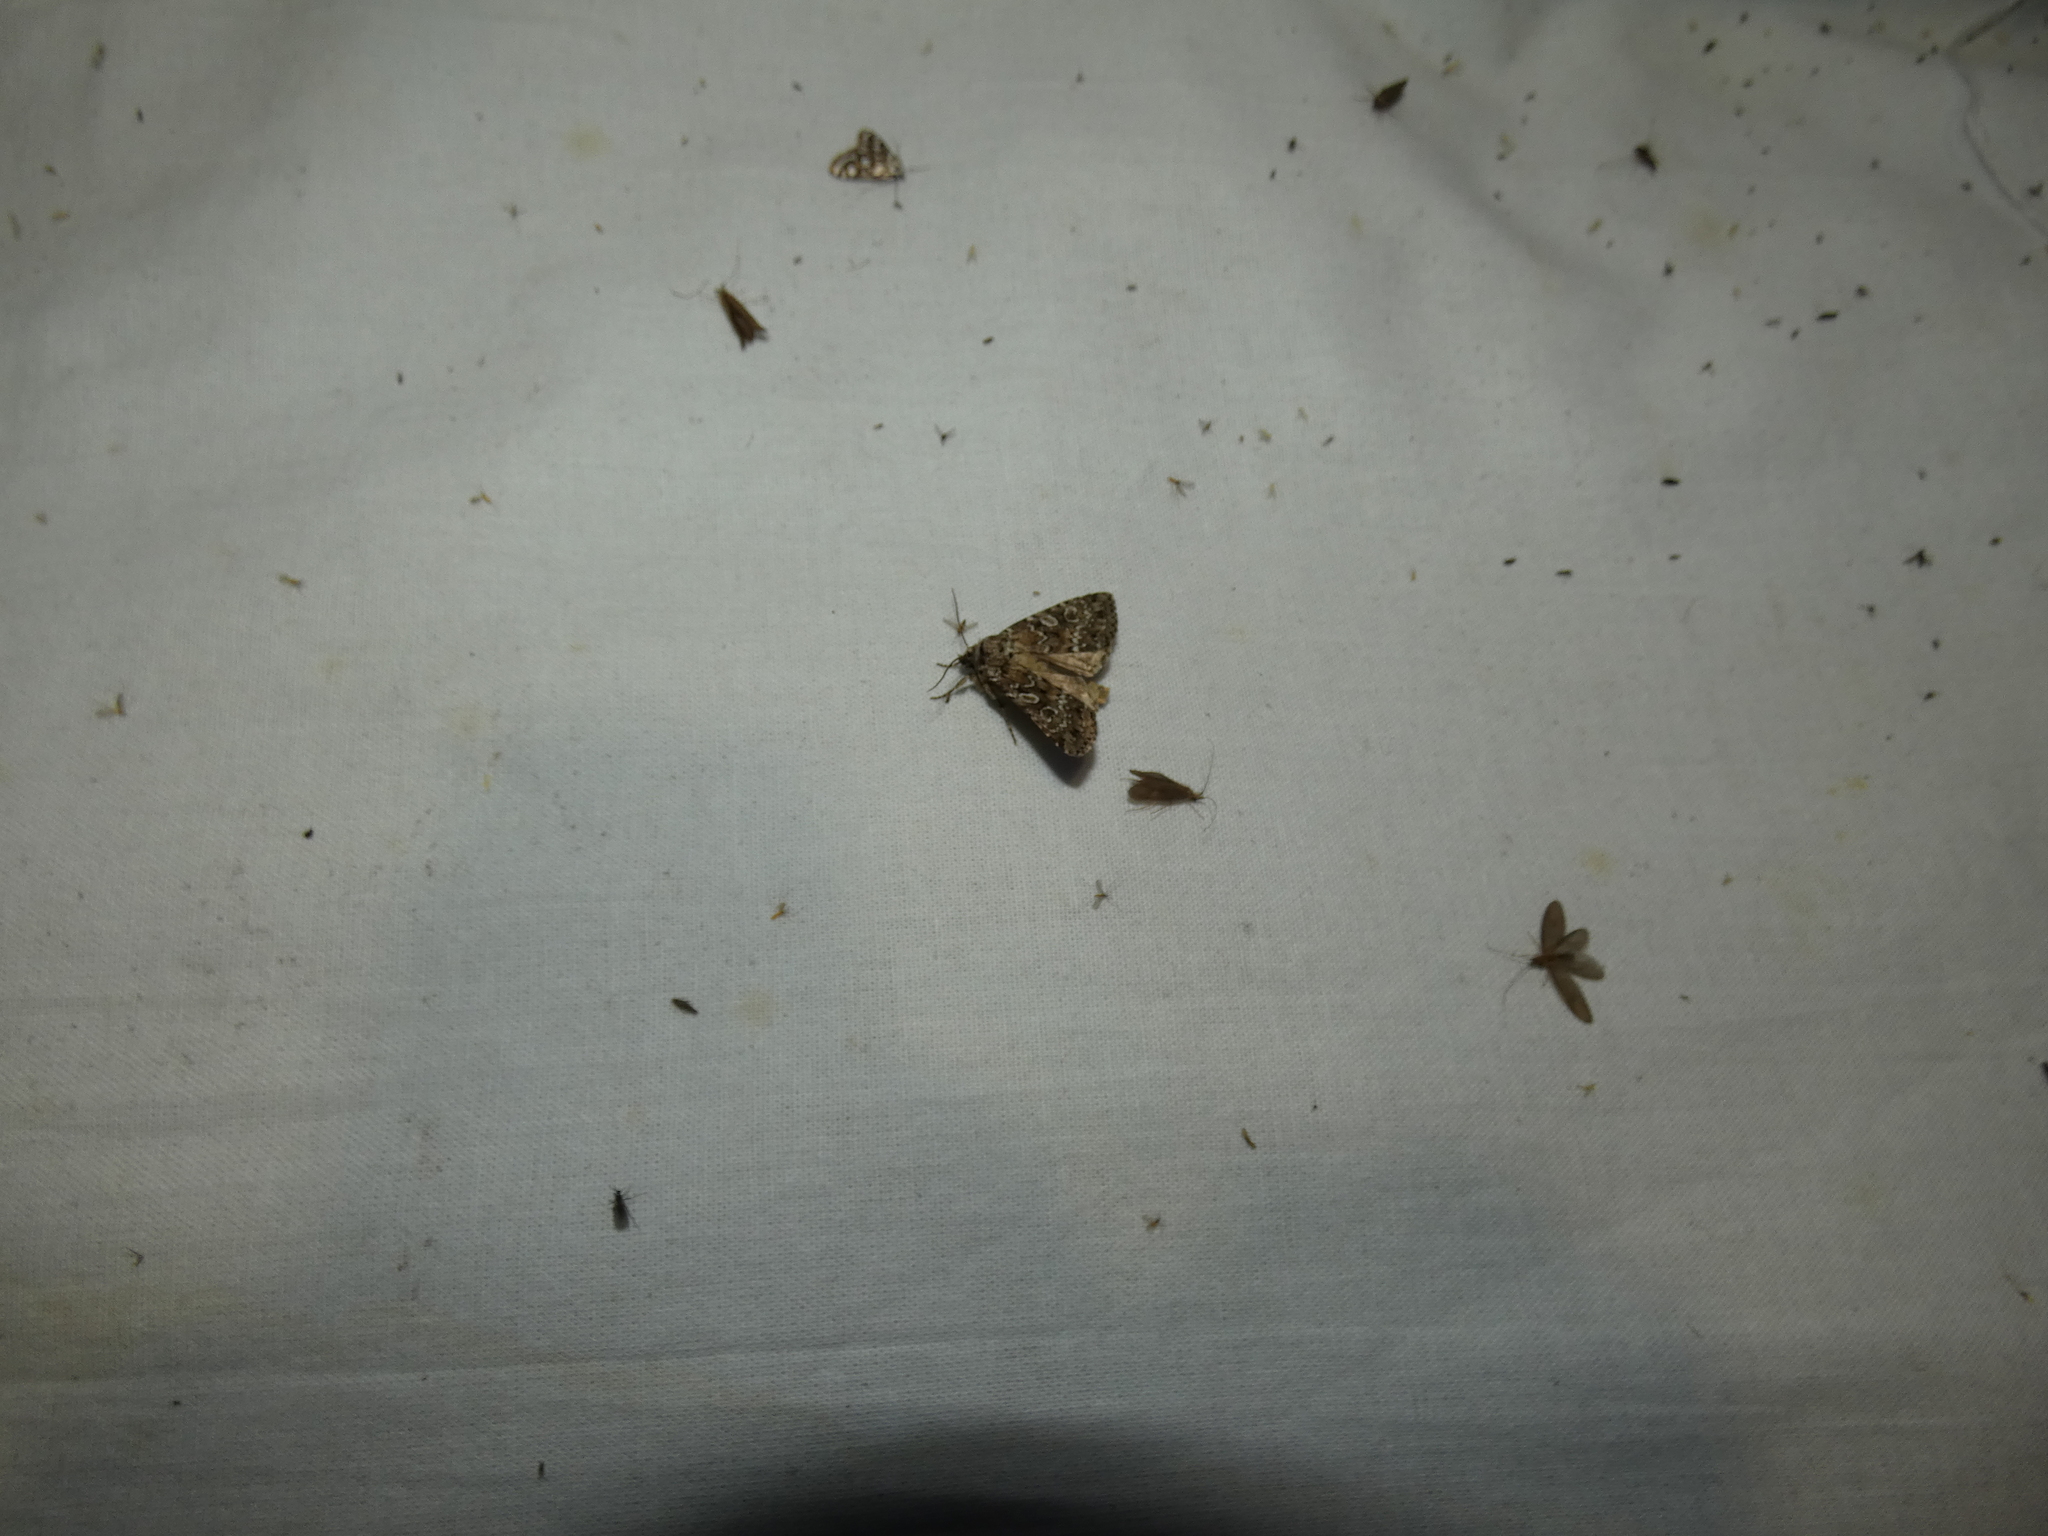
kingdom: Animalia
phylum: Arthropoda
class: Insecta
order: Lepidoptera
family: Noctuidae
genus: Xestia
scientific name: Xestia speciosa
